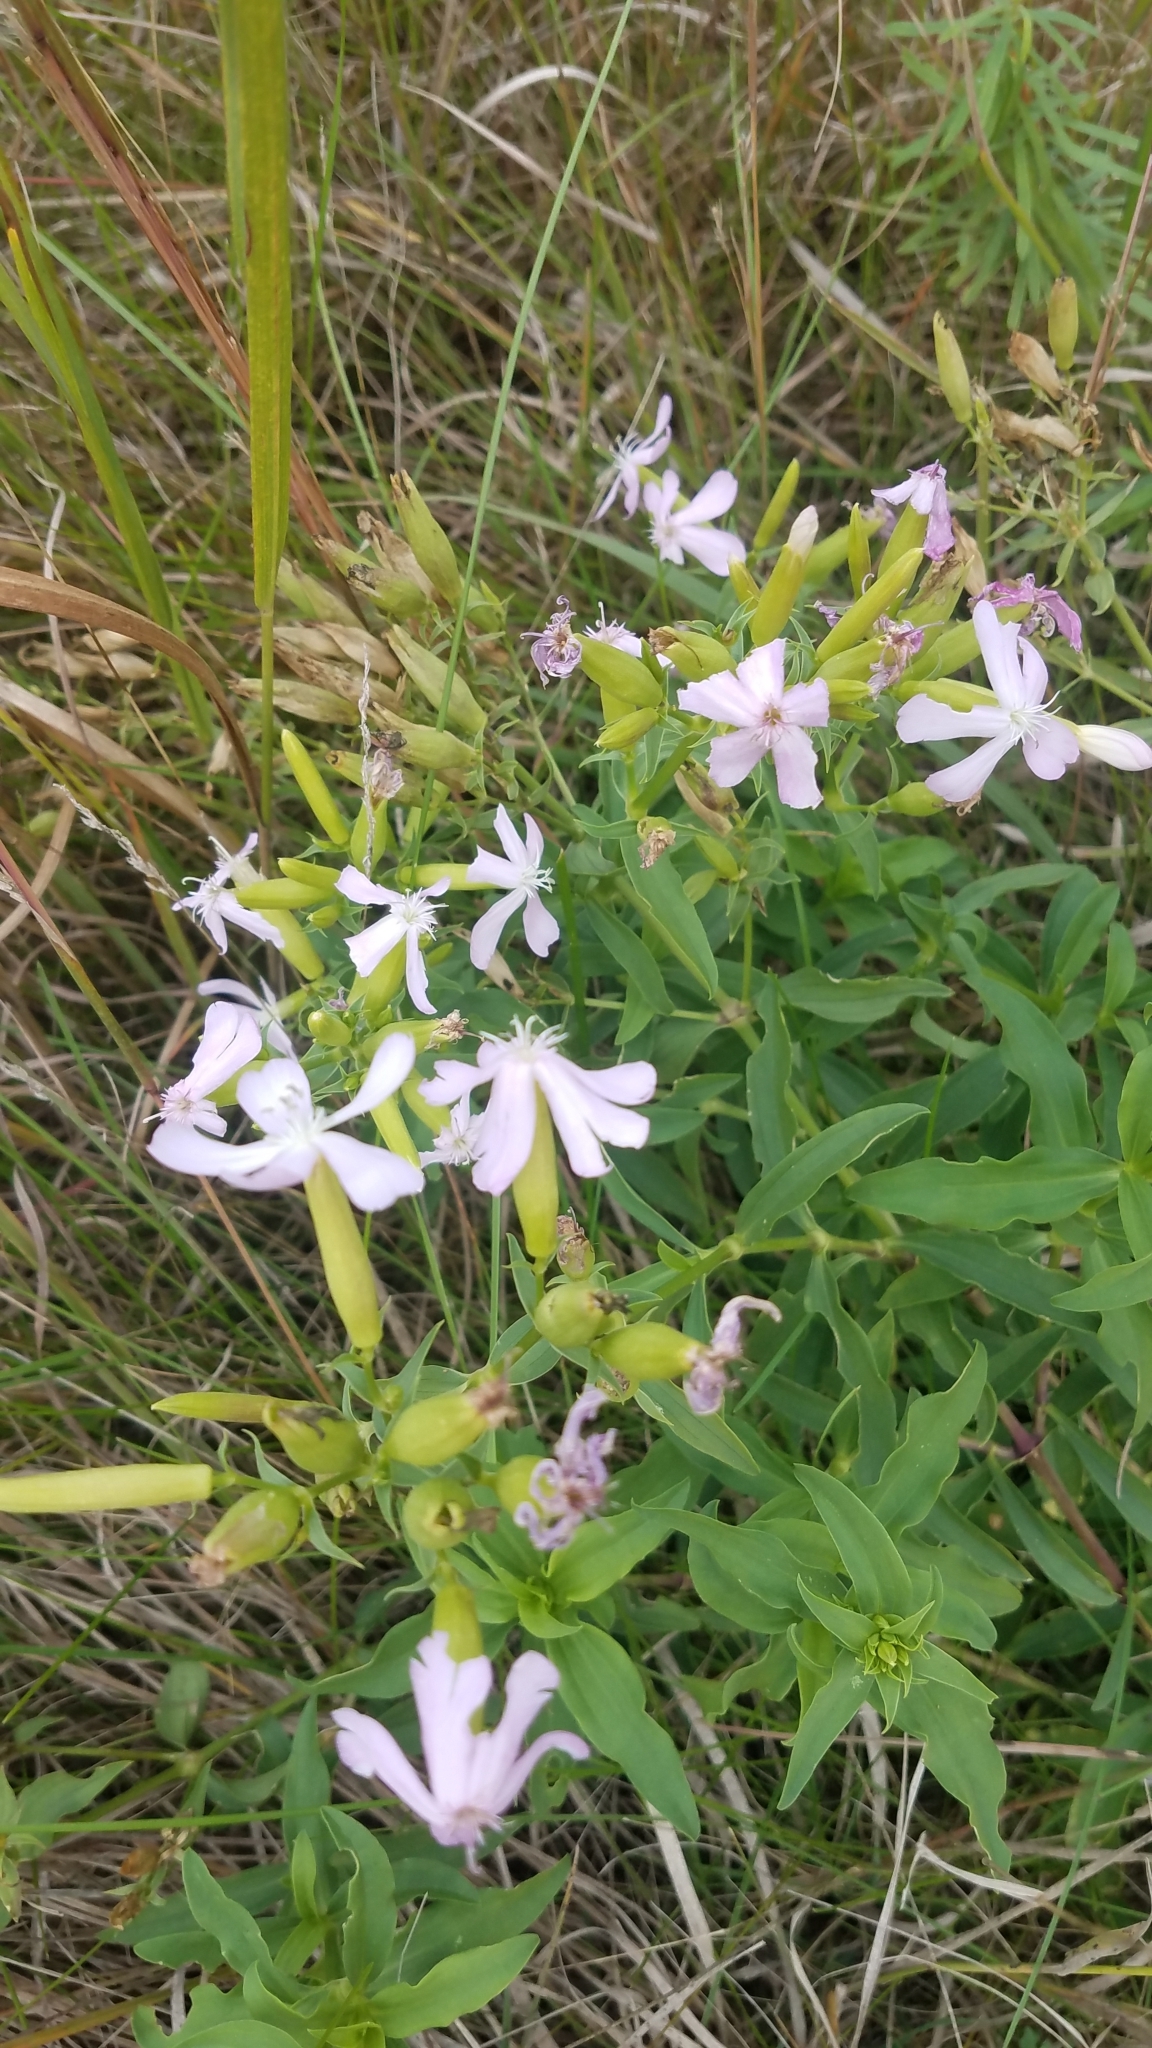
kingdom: Plantae
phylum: Tracheophyta
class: Magnoliopsida
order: Caryophyllales
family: Caryophyllaceae
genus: Saponaria
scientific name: Saponaria officinalis
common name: Soapwort
